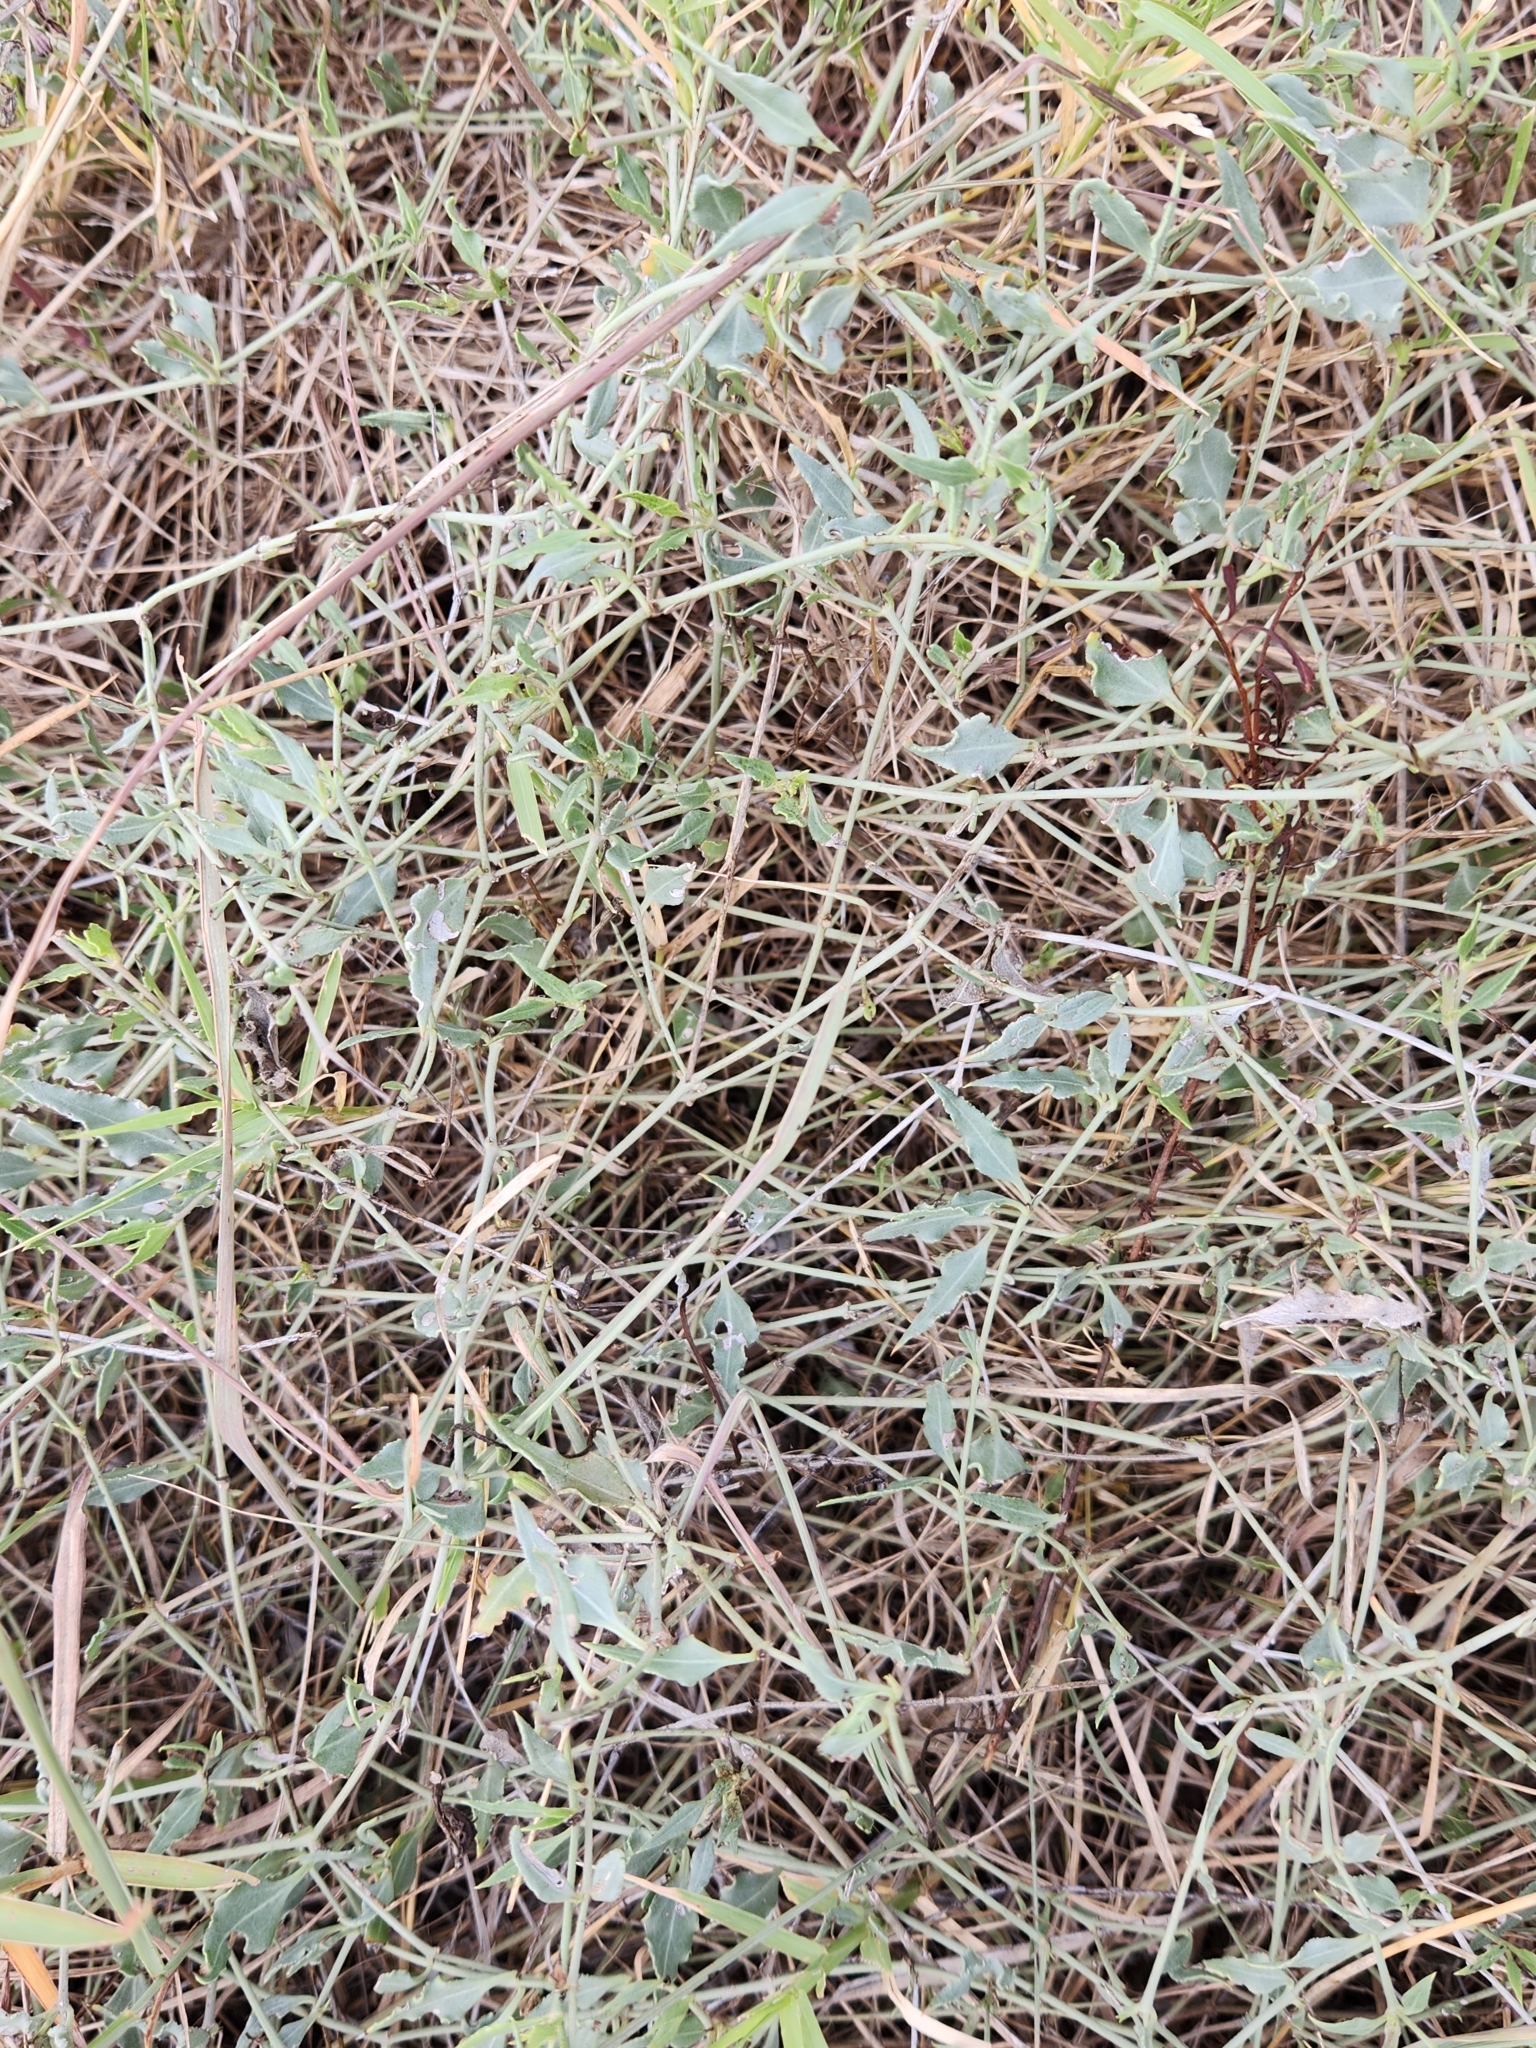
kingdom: Plantae
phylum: Tracheophyta
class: Magnoliopsida
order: Caryophyllales
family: Nyctaginaceae
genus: Acleisanthes
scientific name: Acleisanthes longiflora
